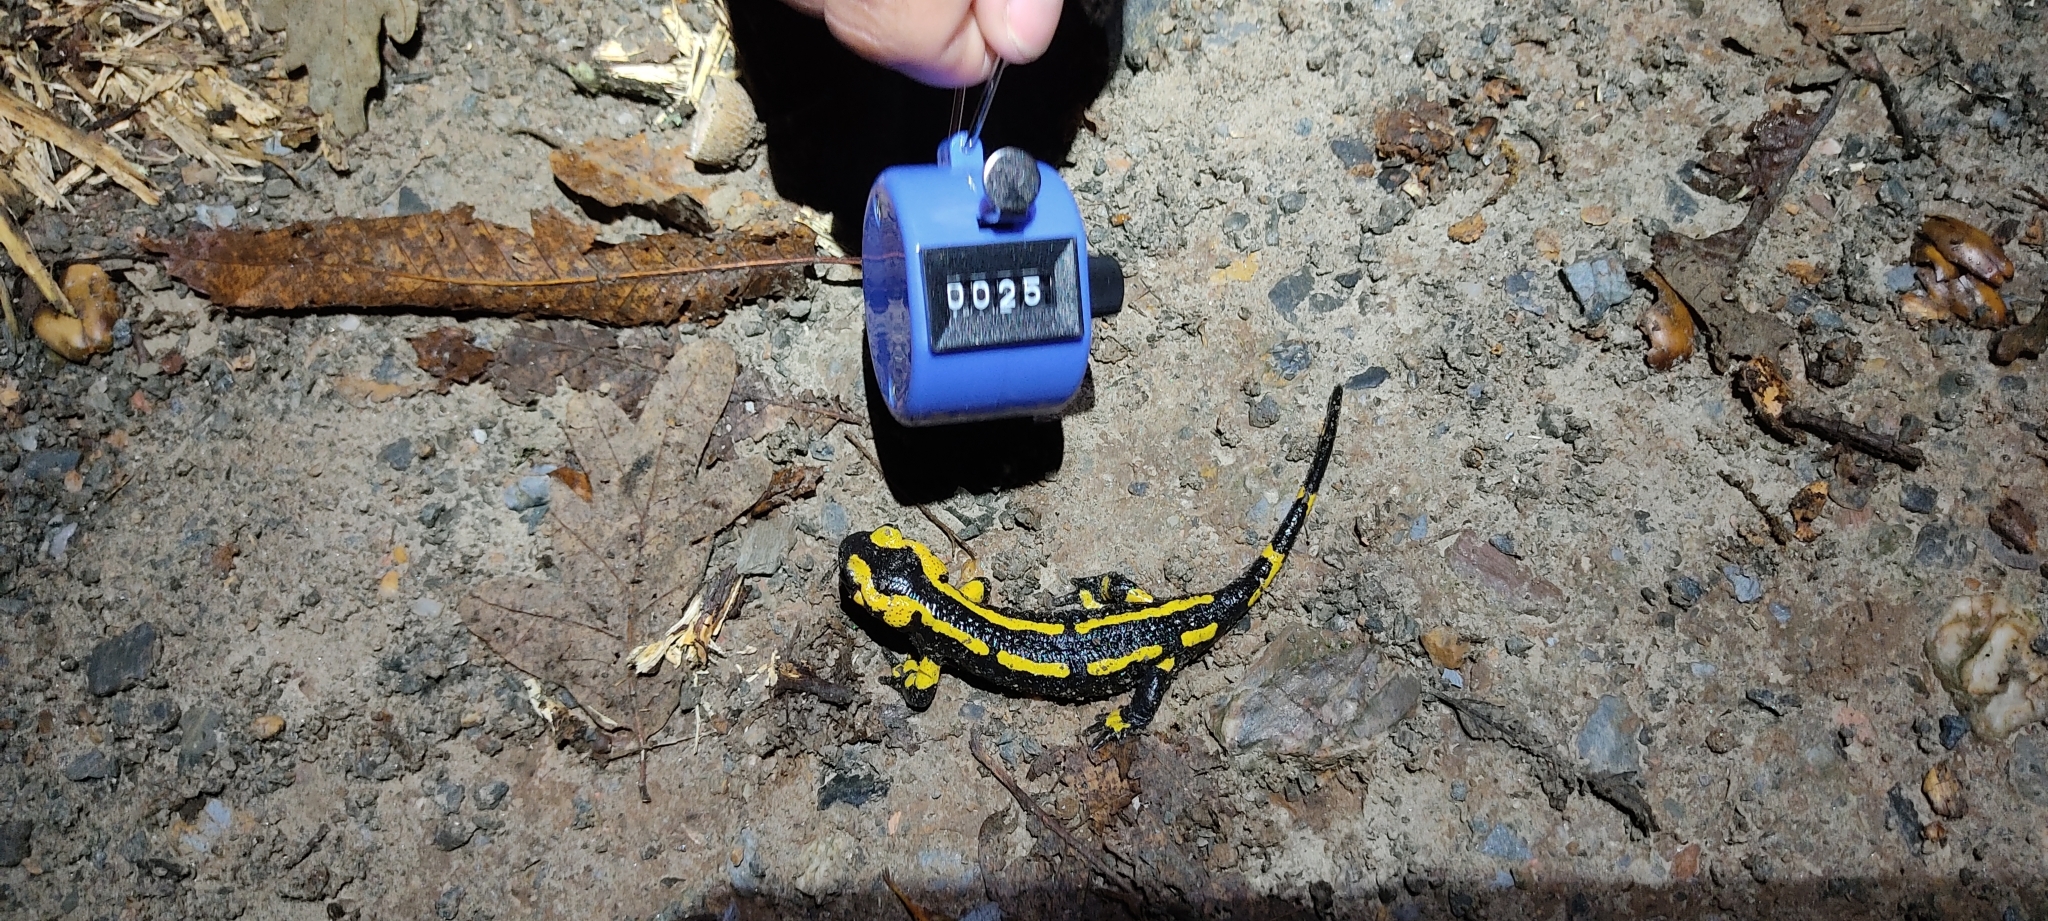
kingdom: Animalia
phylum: Chordata
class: Amphibia
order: Caudata
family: Salamandridae
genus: Salamandra
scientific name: Salamandra salamandra
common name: Fire salamander
